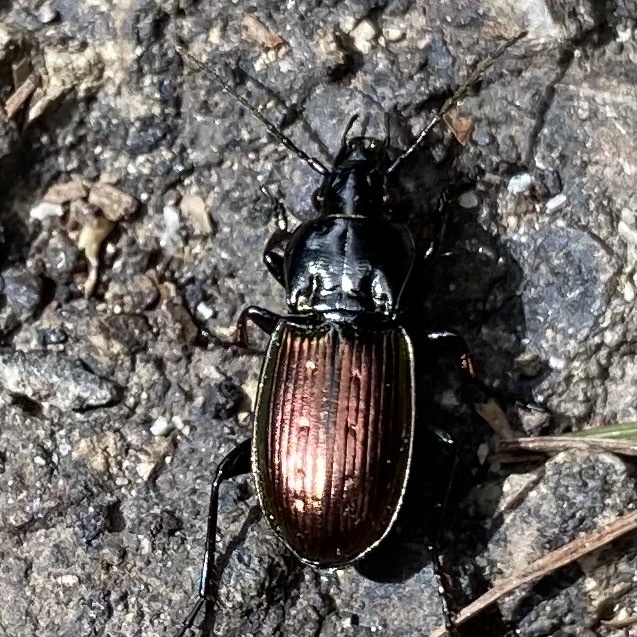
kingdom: Animalia
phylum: Arthropoda
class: Insecta
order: Coleoptera
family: Carabidae
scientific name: Carabidae
